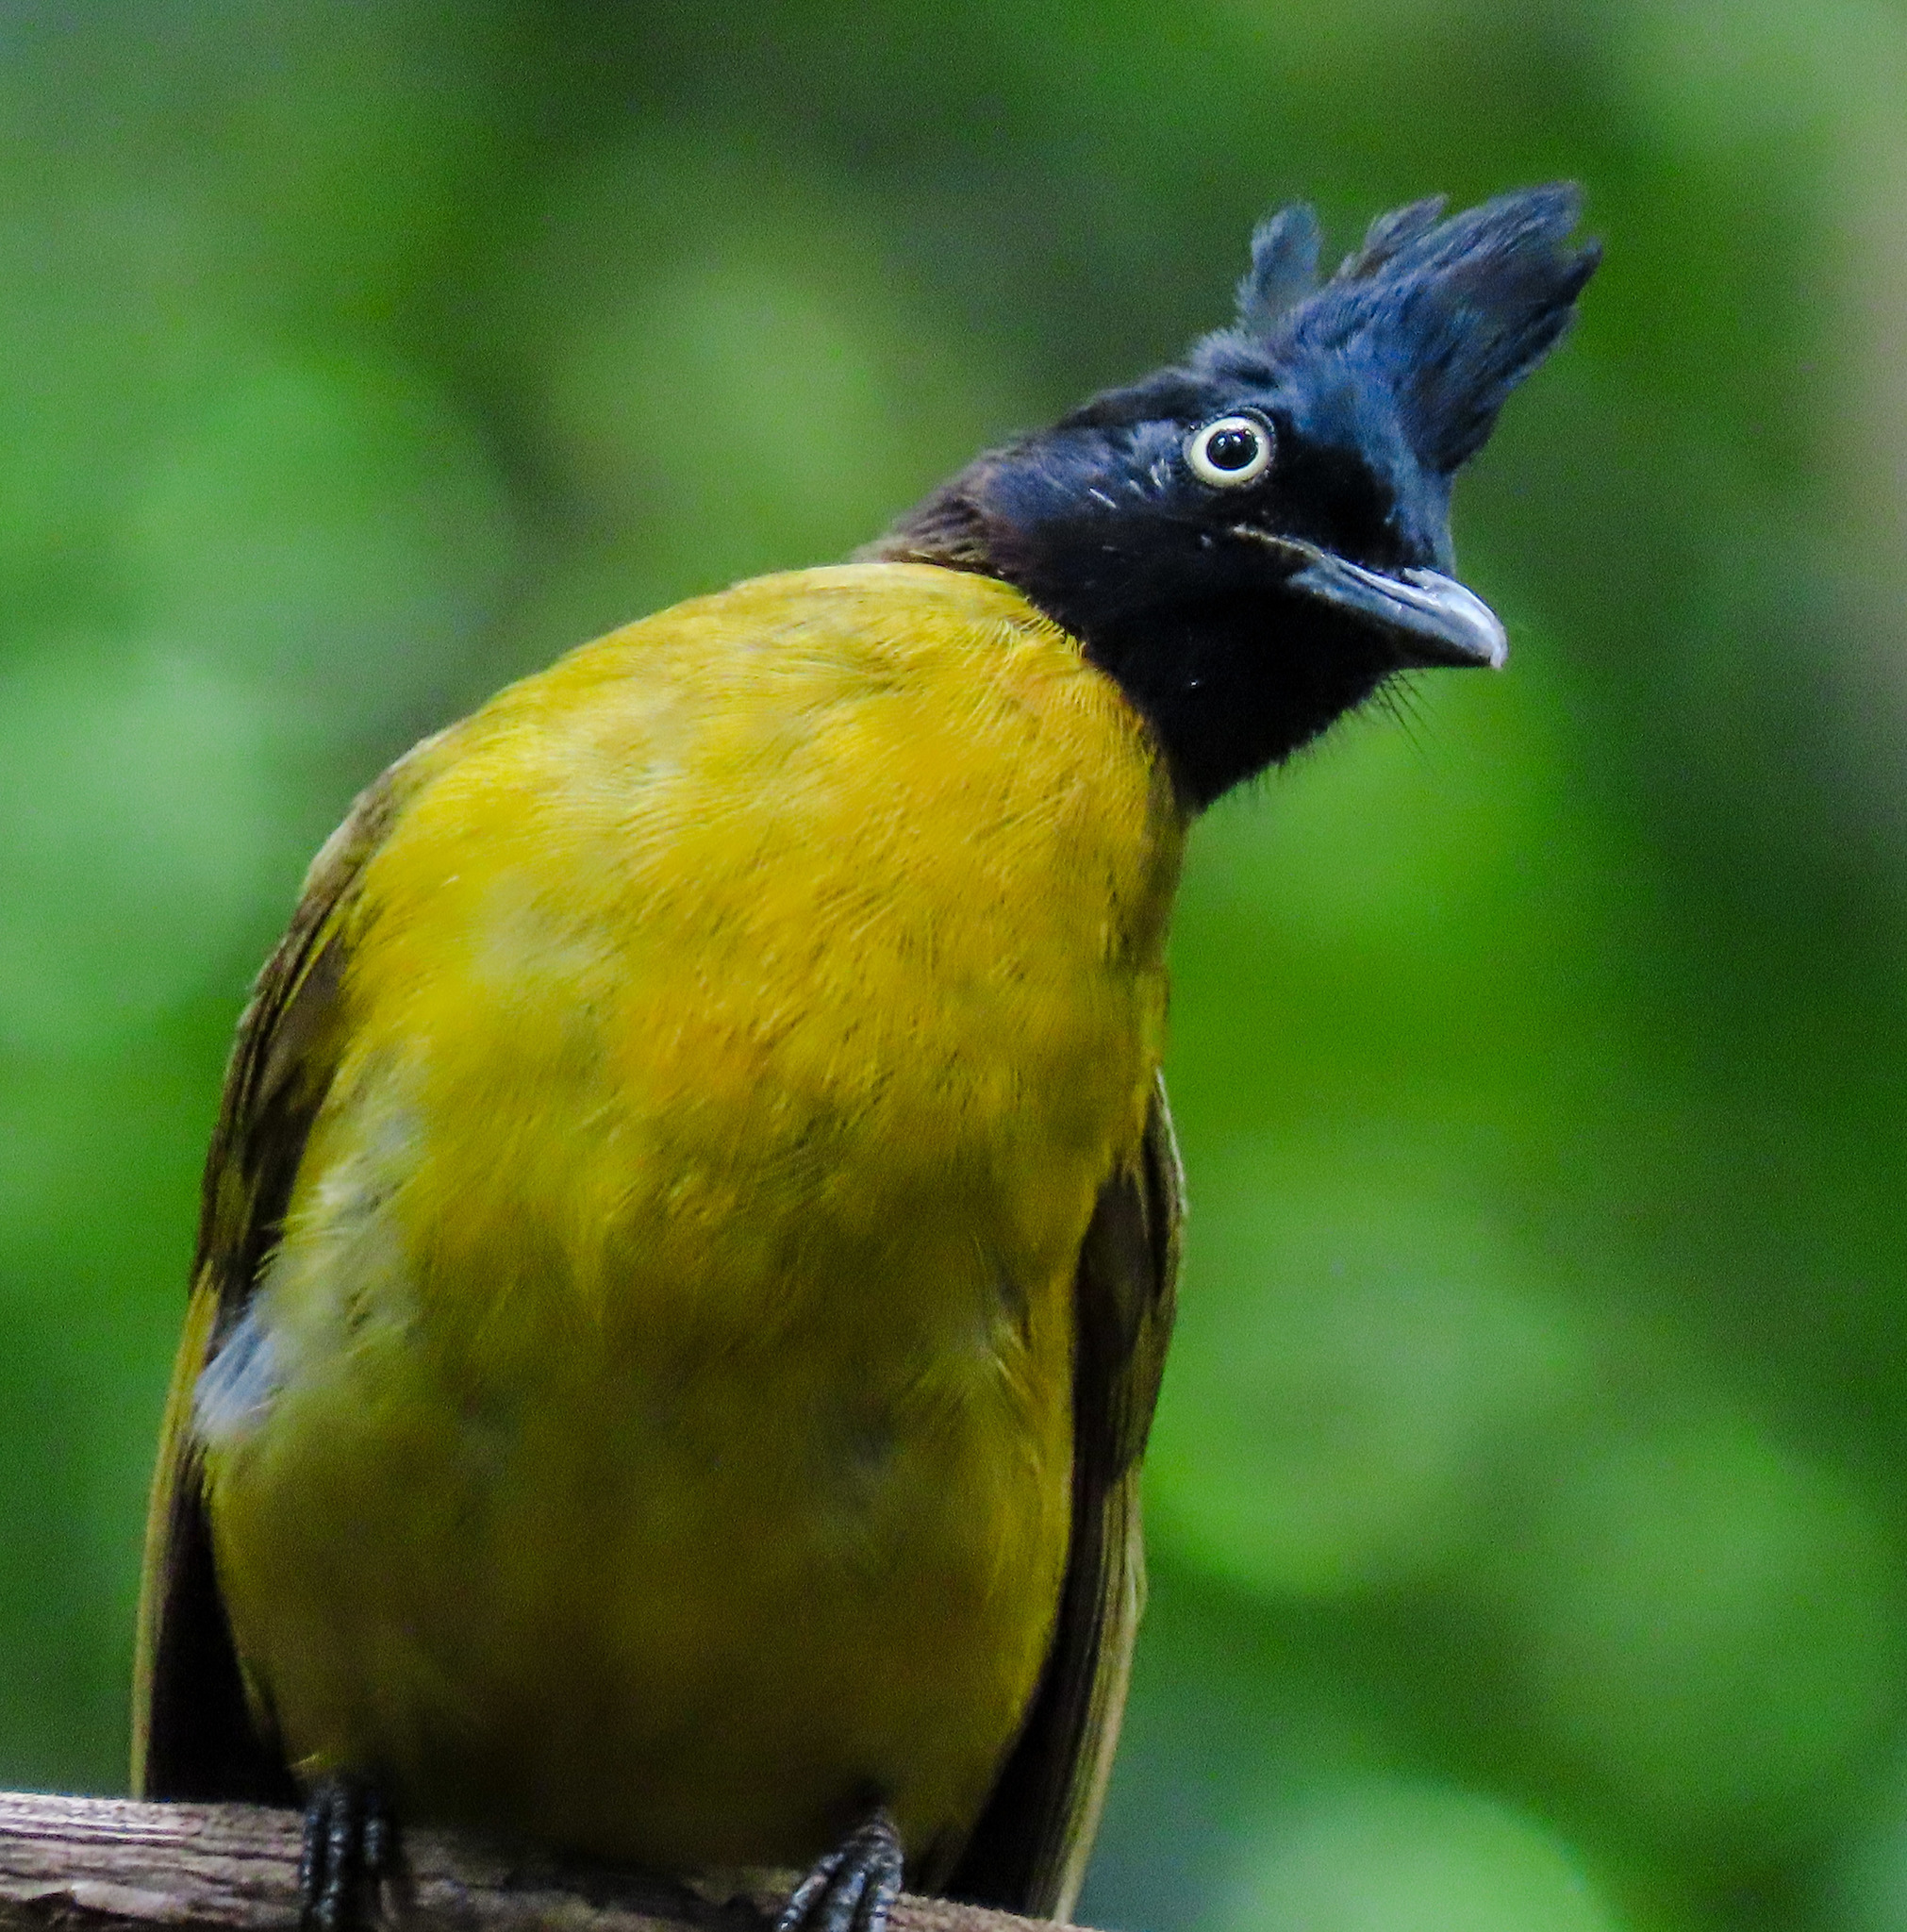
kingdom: Animalia
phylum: Chordata
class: Aves
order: Passeriformes
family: Pycnonotidae
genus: Pycnonotus
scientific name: Pycnonotus flaviventris
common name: Black-crested bulbul
